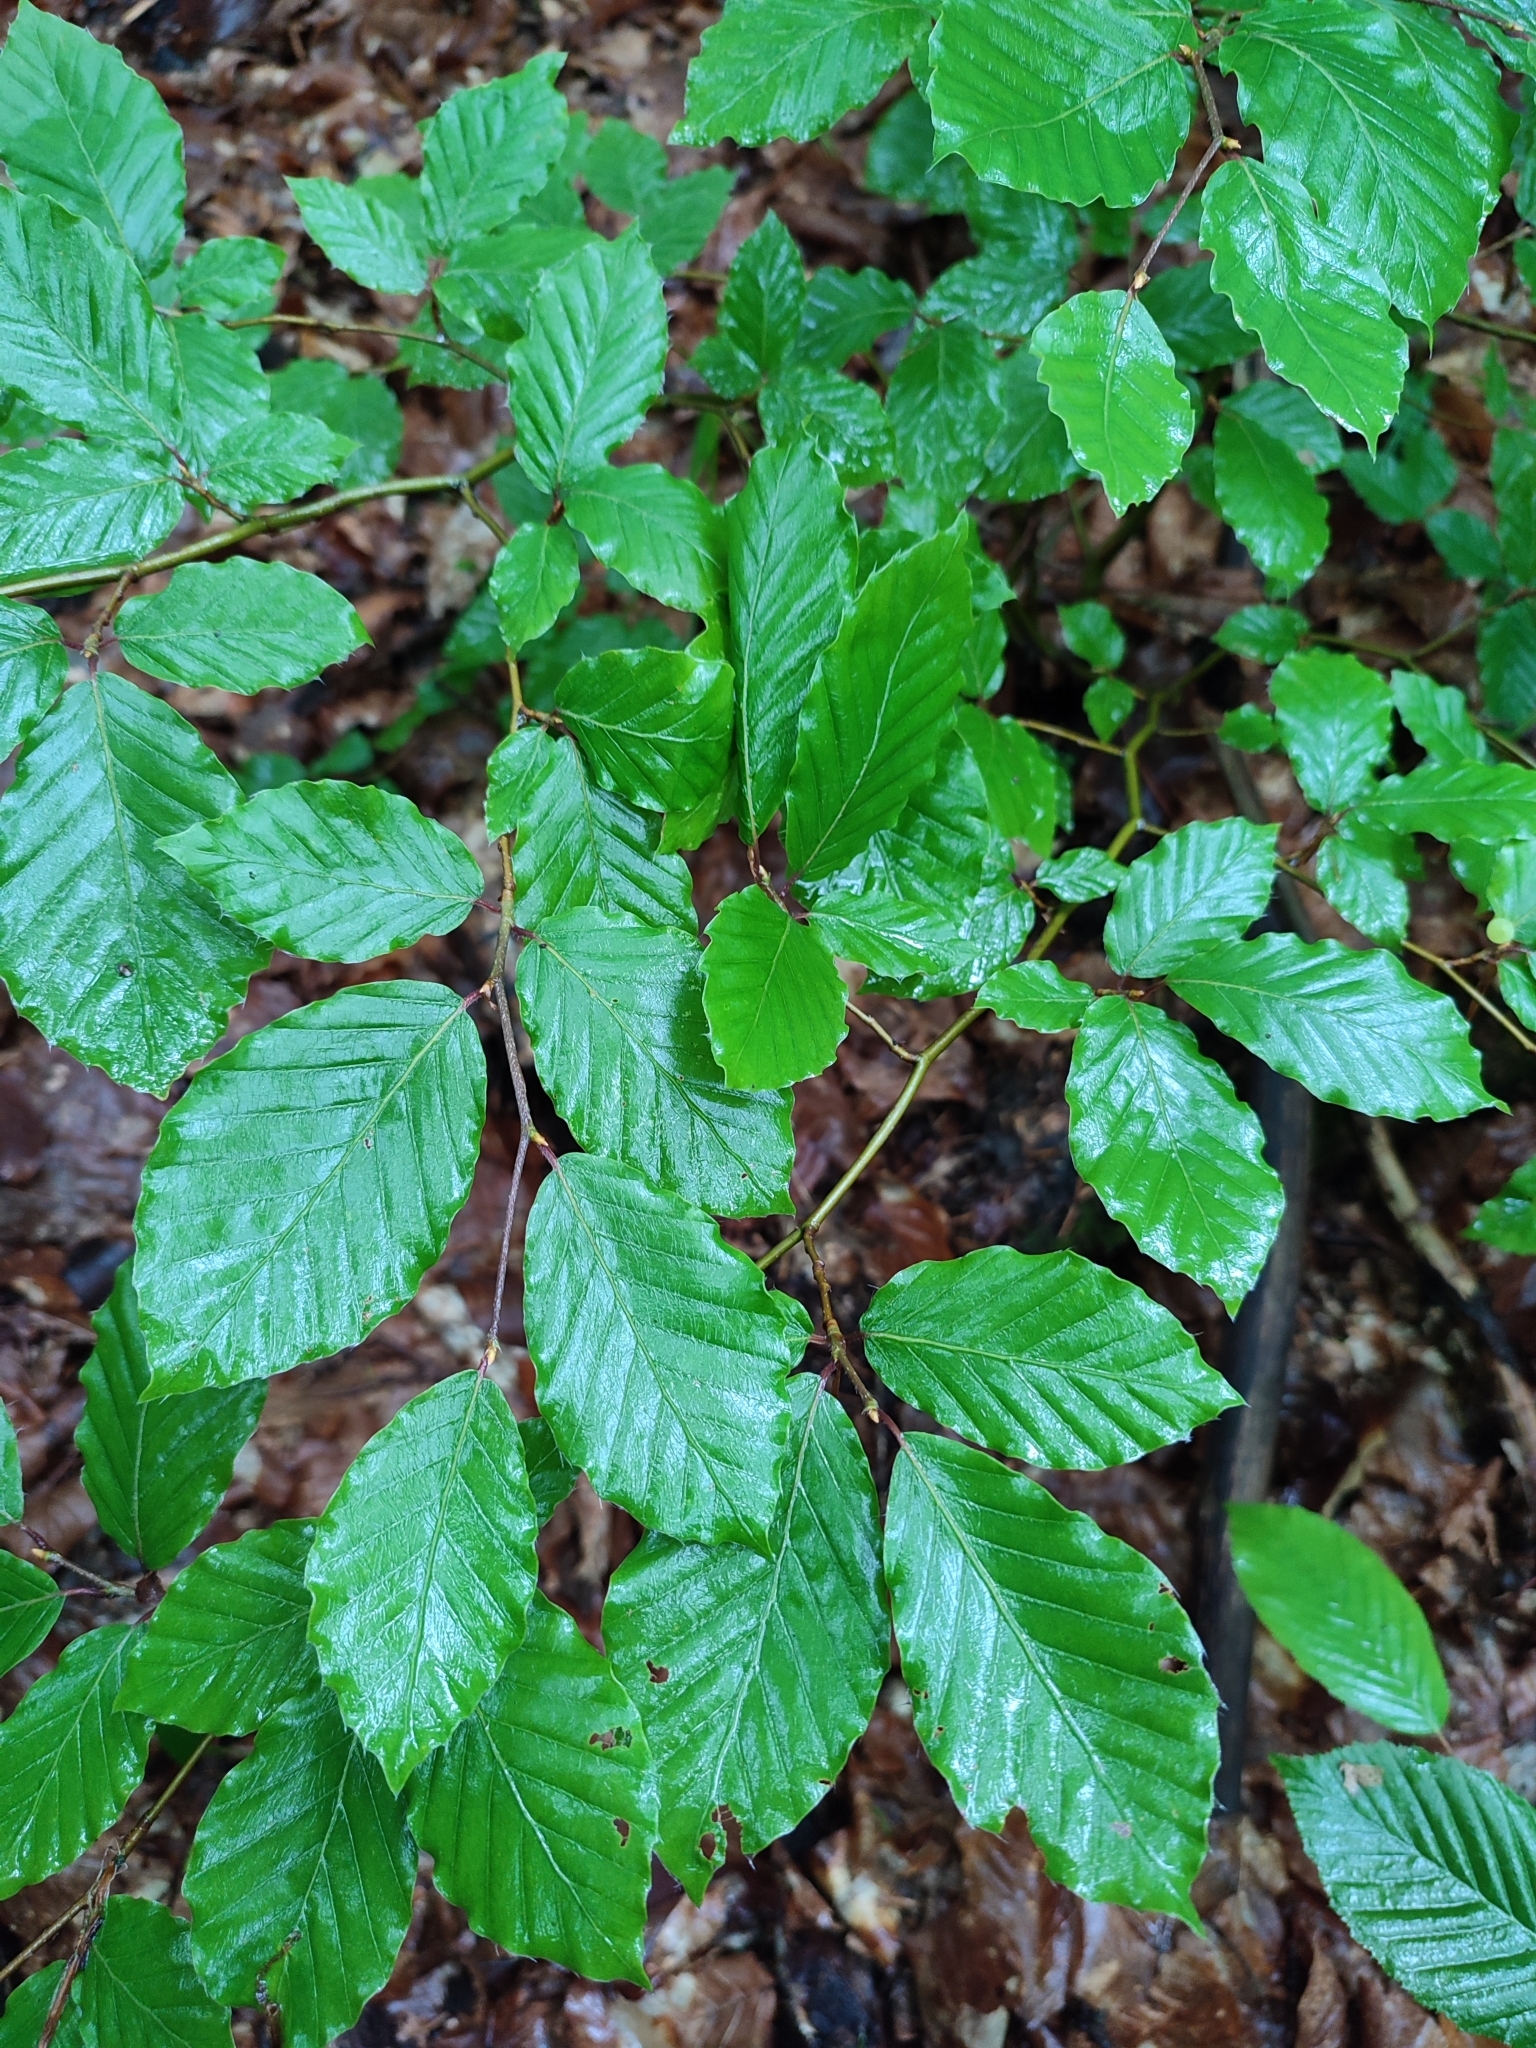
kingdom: Plantae
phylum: Tracheophyta
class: Magnoliopsida
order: Fagales
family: Fagaceae
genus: Fagus
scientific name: Fagus sylvatica
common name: Beech
